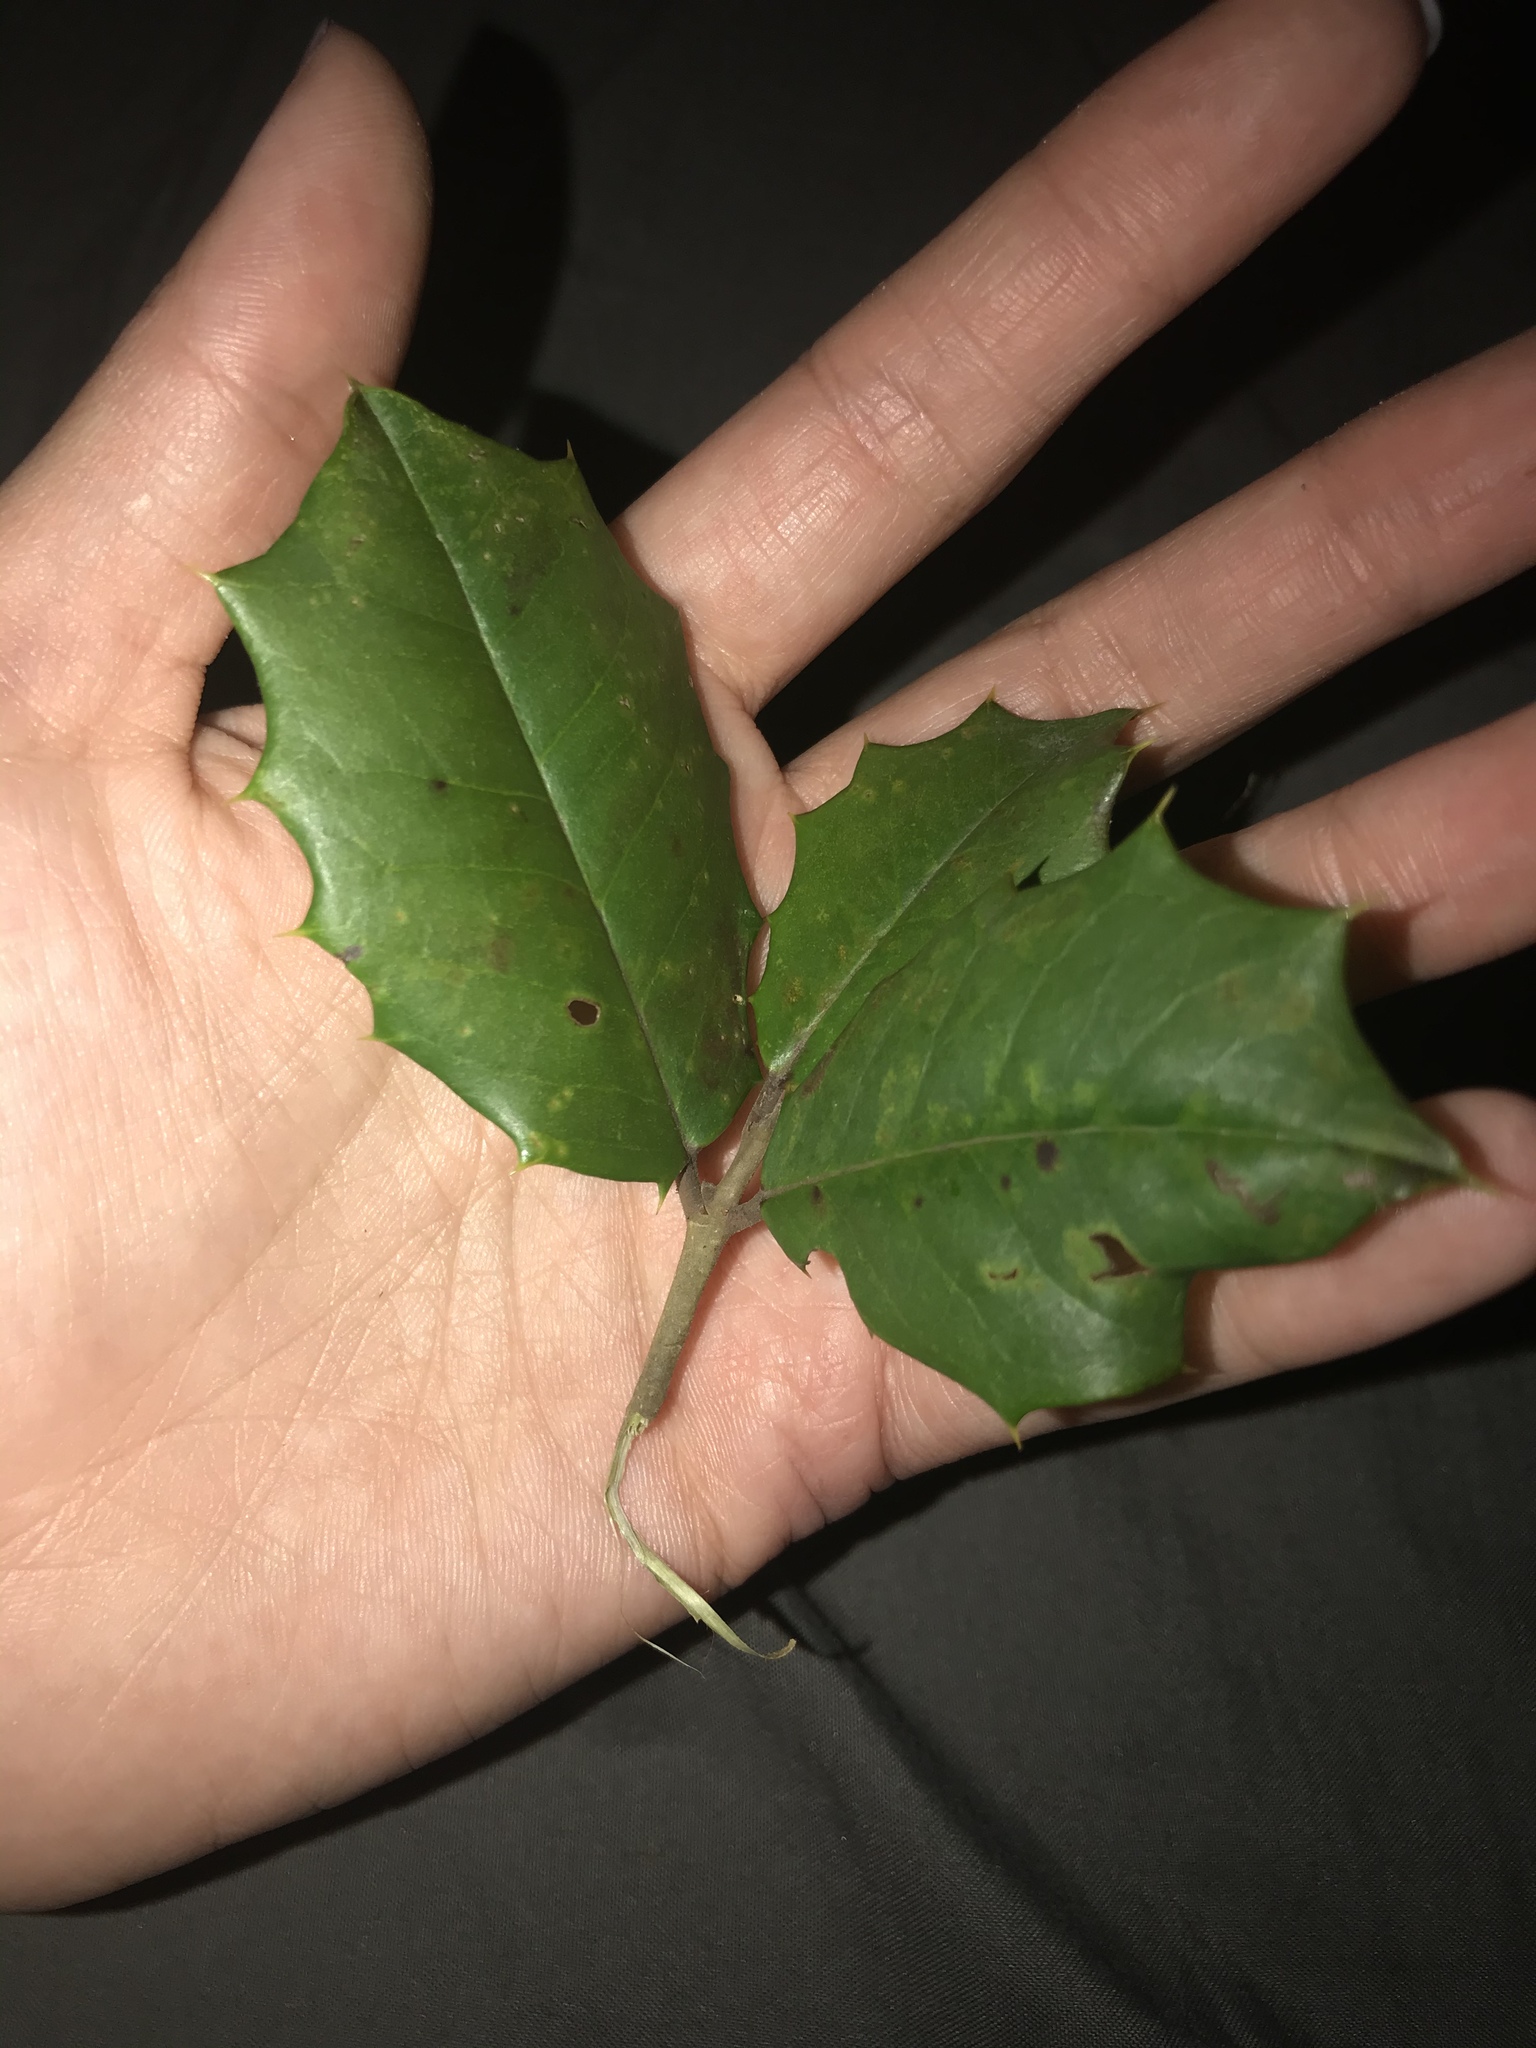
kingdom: Plantae
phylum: Tracheophyta
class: Magnoliopsida
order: Aquifoliales
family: Aquifoliaceae
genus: Ilex
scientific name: Ilex opaca
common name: American holly
